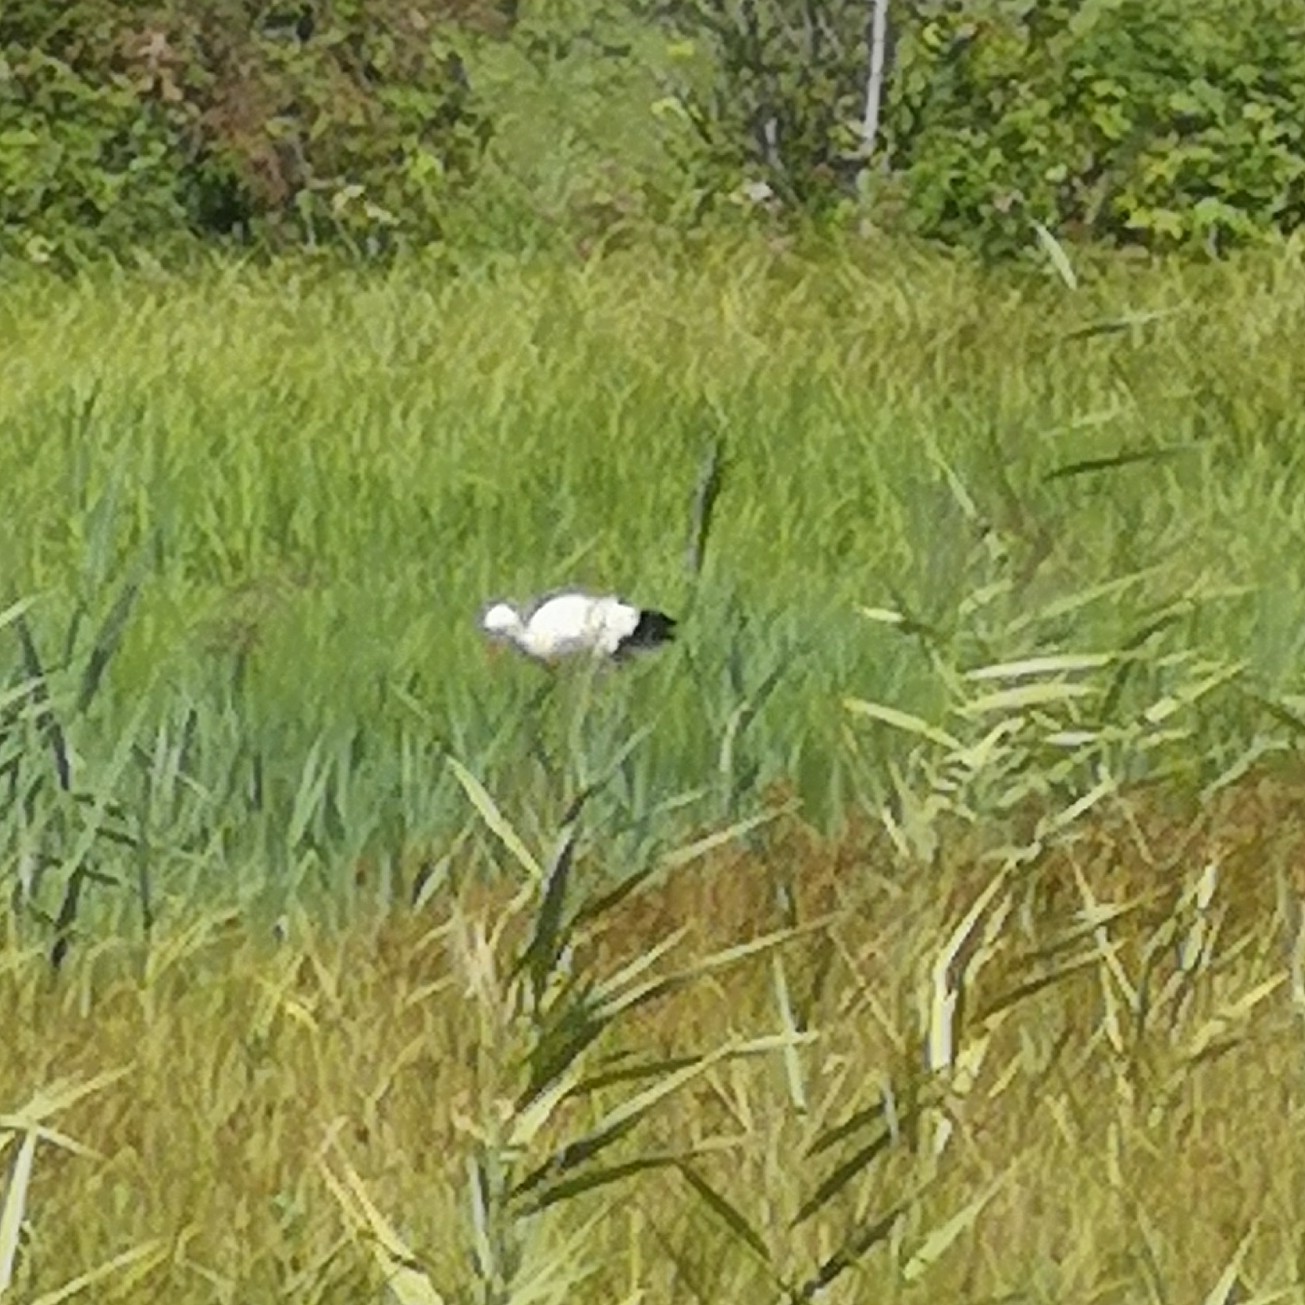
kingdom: Animalia
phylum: Chordata
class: Aves
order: Ciconiiformes
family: Ciconiidae
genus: Ciconia
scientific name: Ciconia ciconia
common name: White stork
